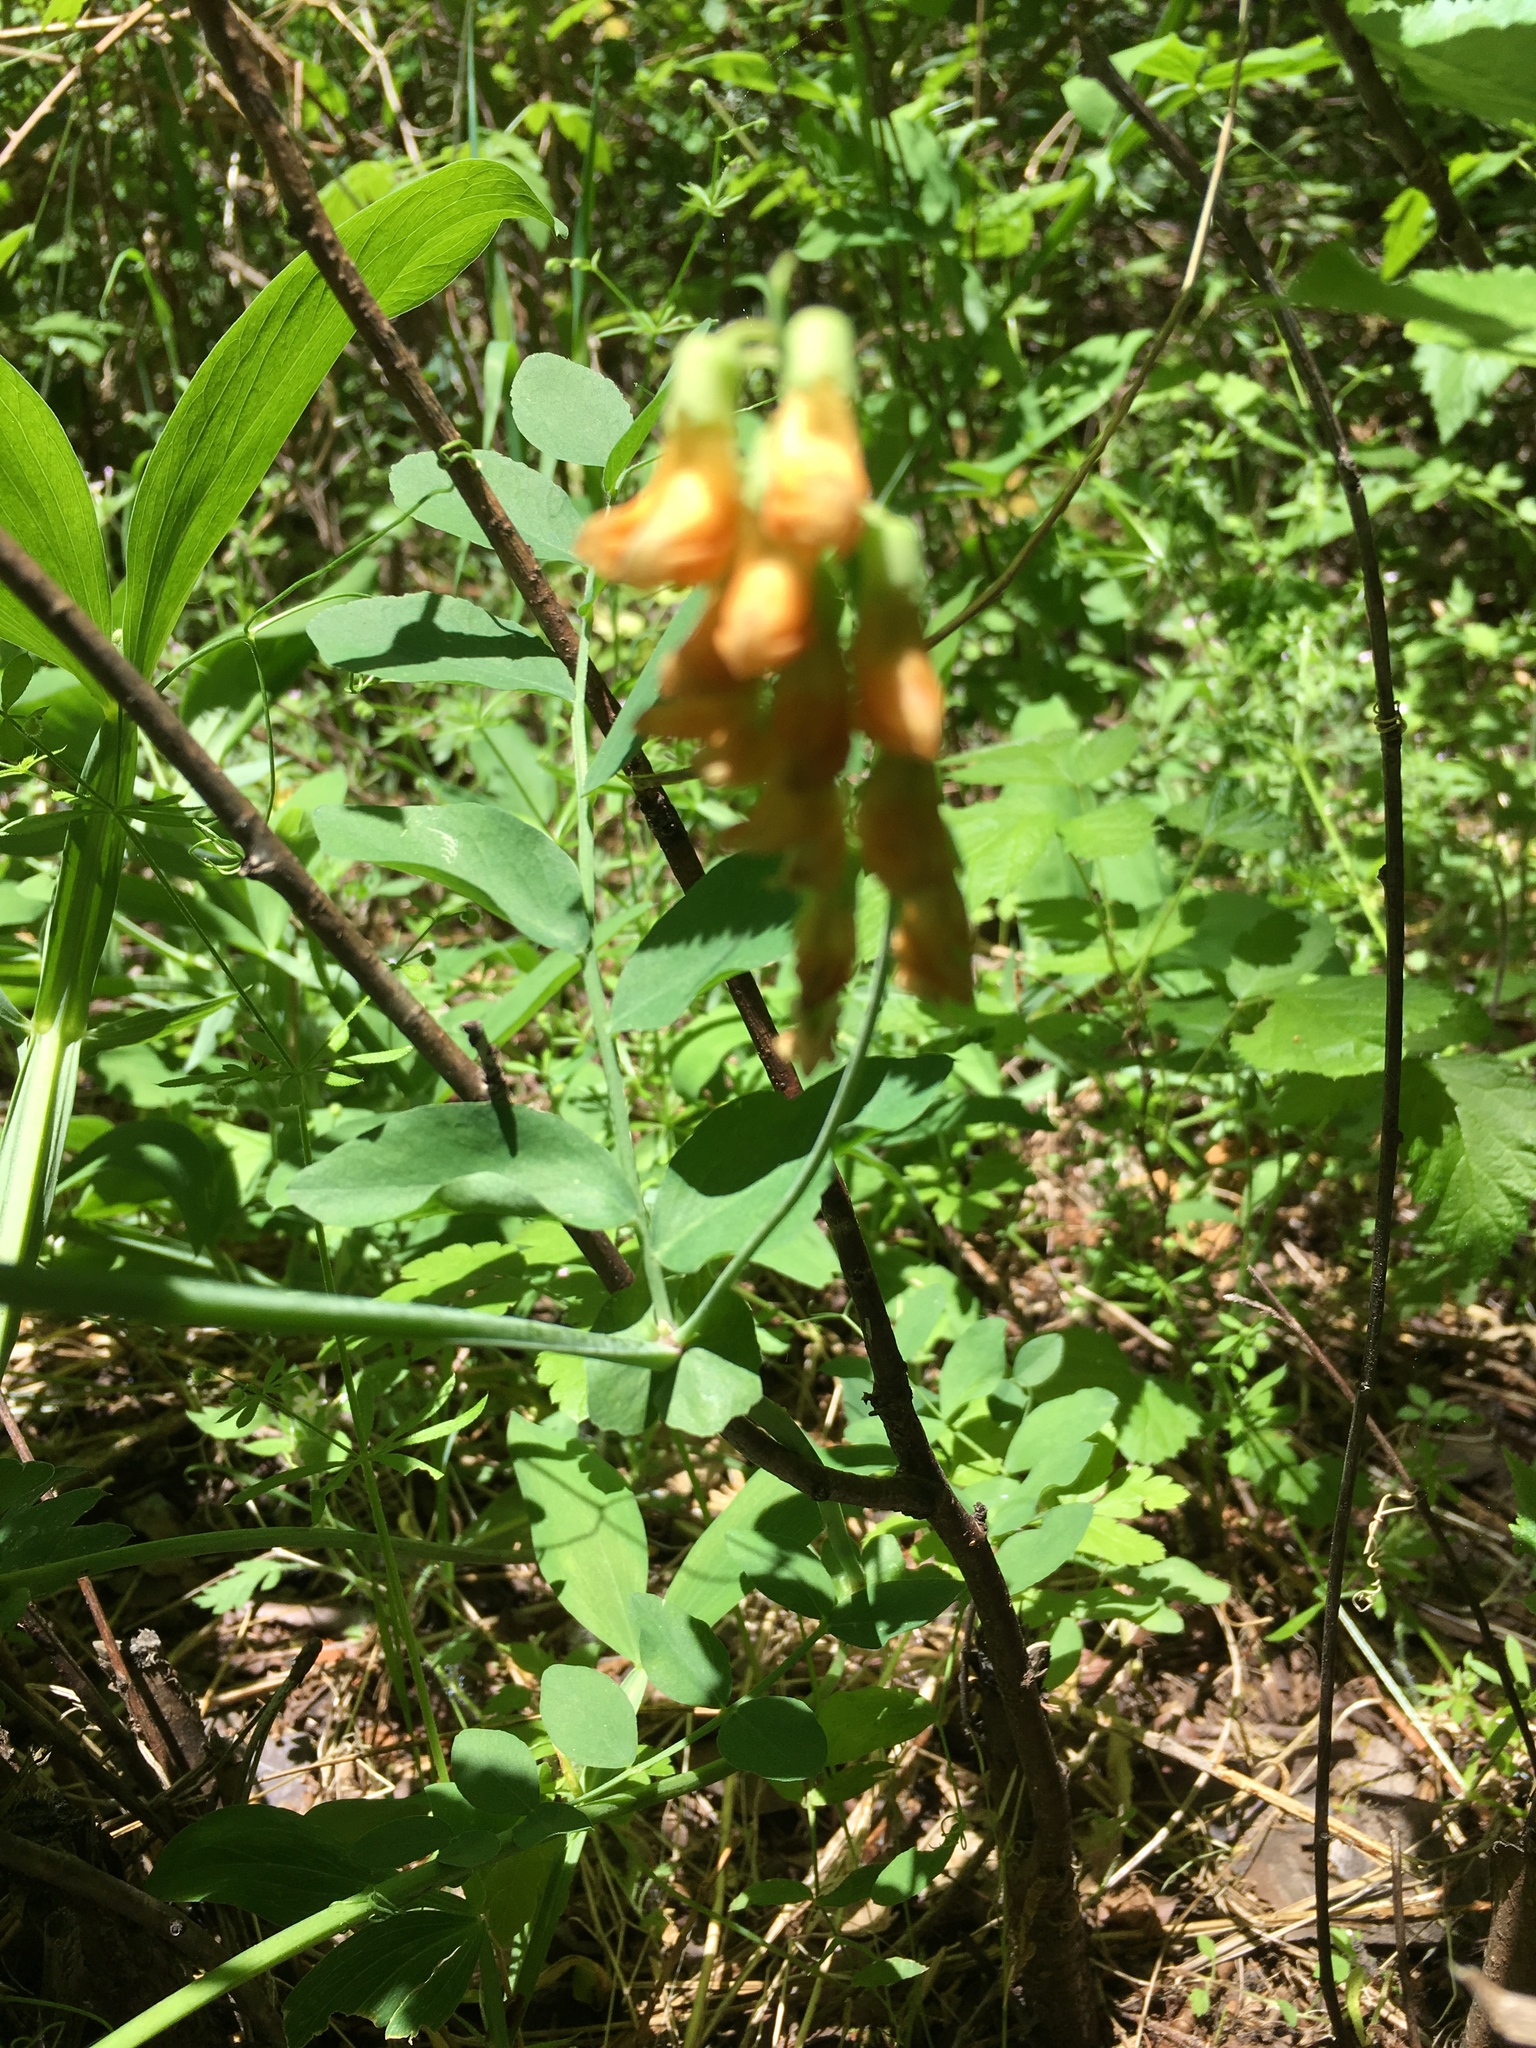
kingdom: Plantae
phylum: Tracheophyta
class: Magnoliopsida
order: Fabales
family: Fabaceae
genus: Lathyrus
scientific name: Lathyrus sulphureus
